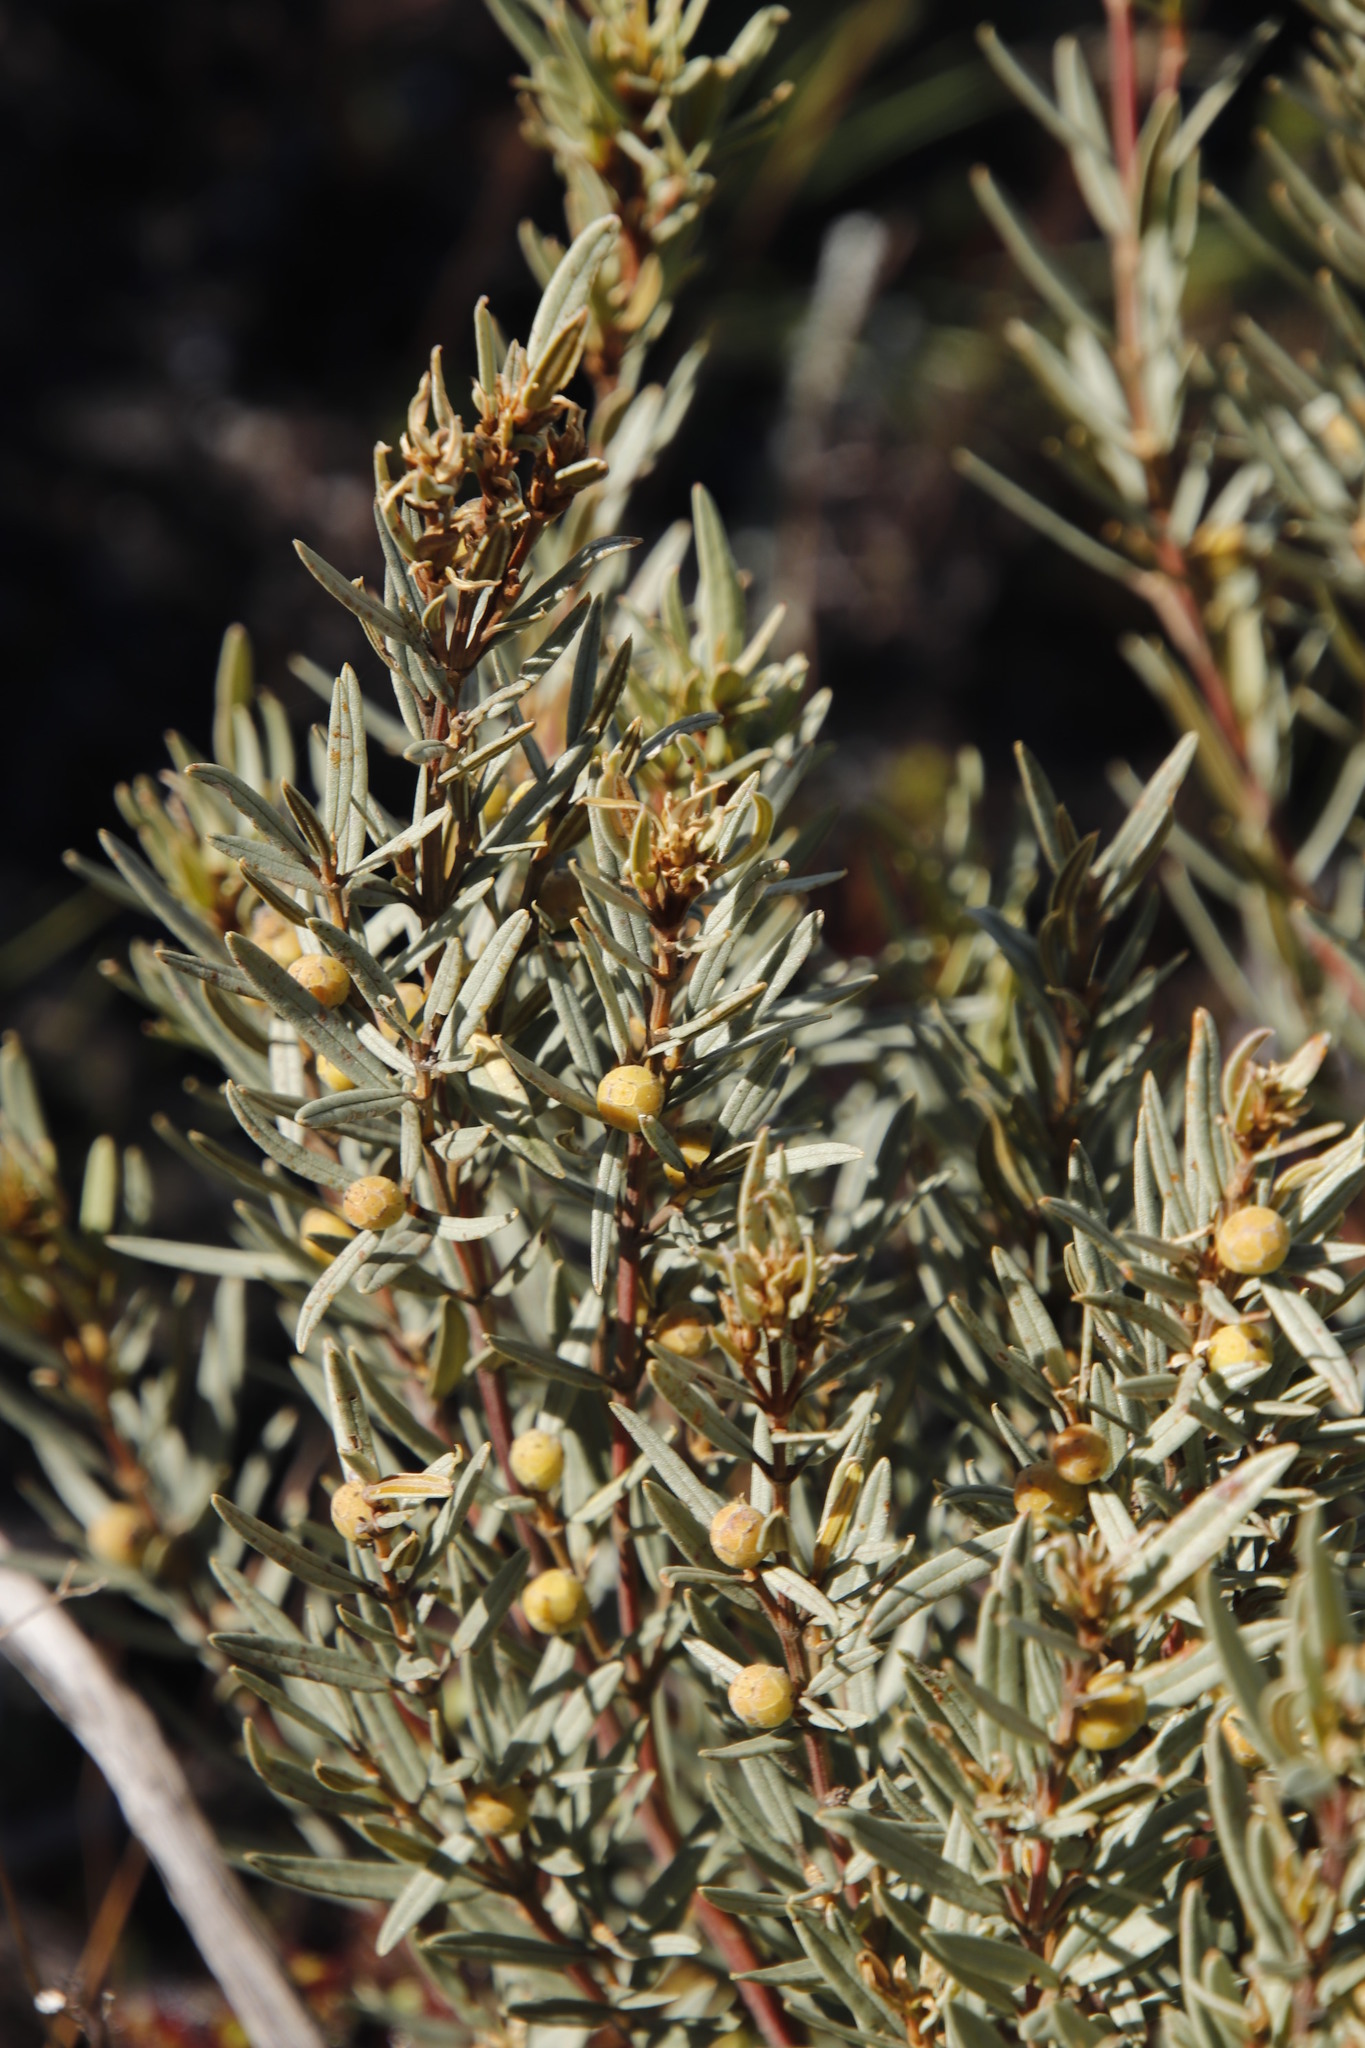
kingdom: Plantae
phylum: Tracheophyta
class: Magnoliopsida
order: Cornales
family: Grubbiaceae
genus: Grubbia
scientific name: Grubbia tomentosa
